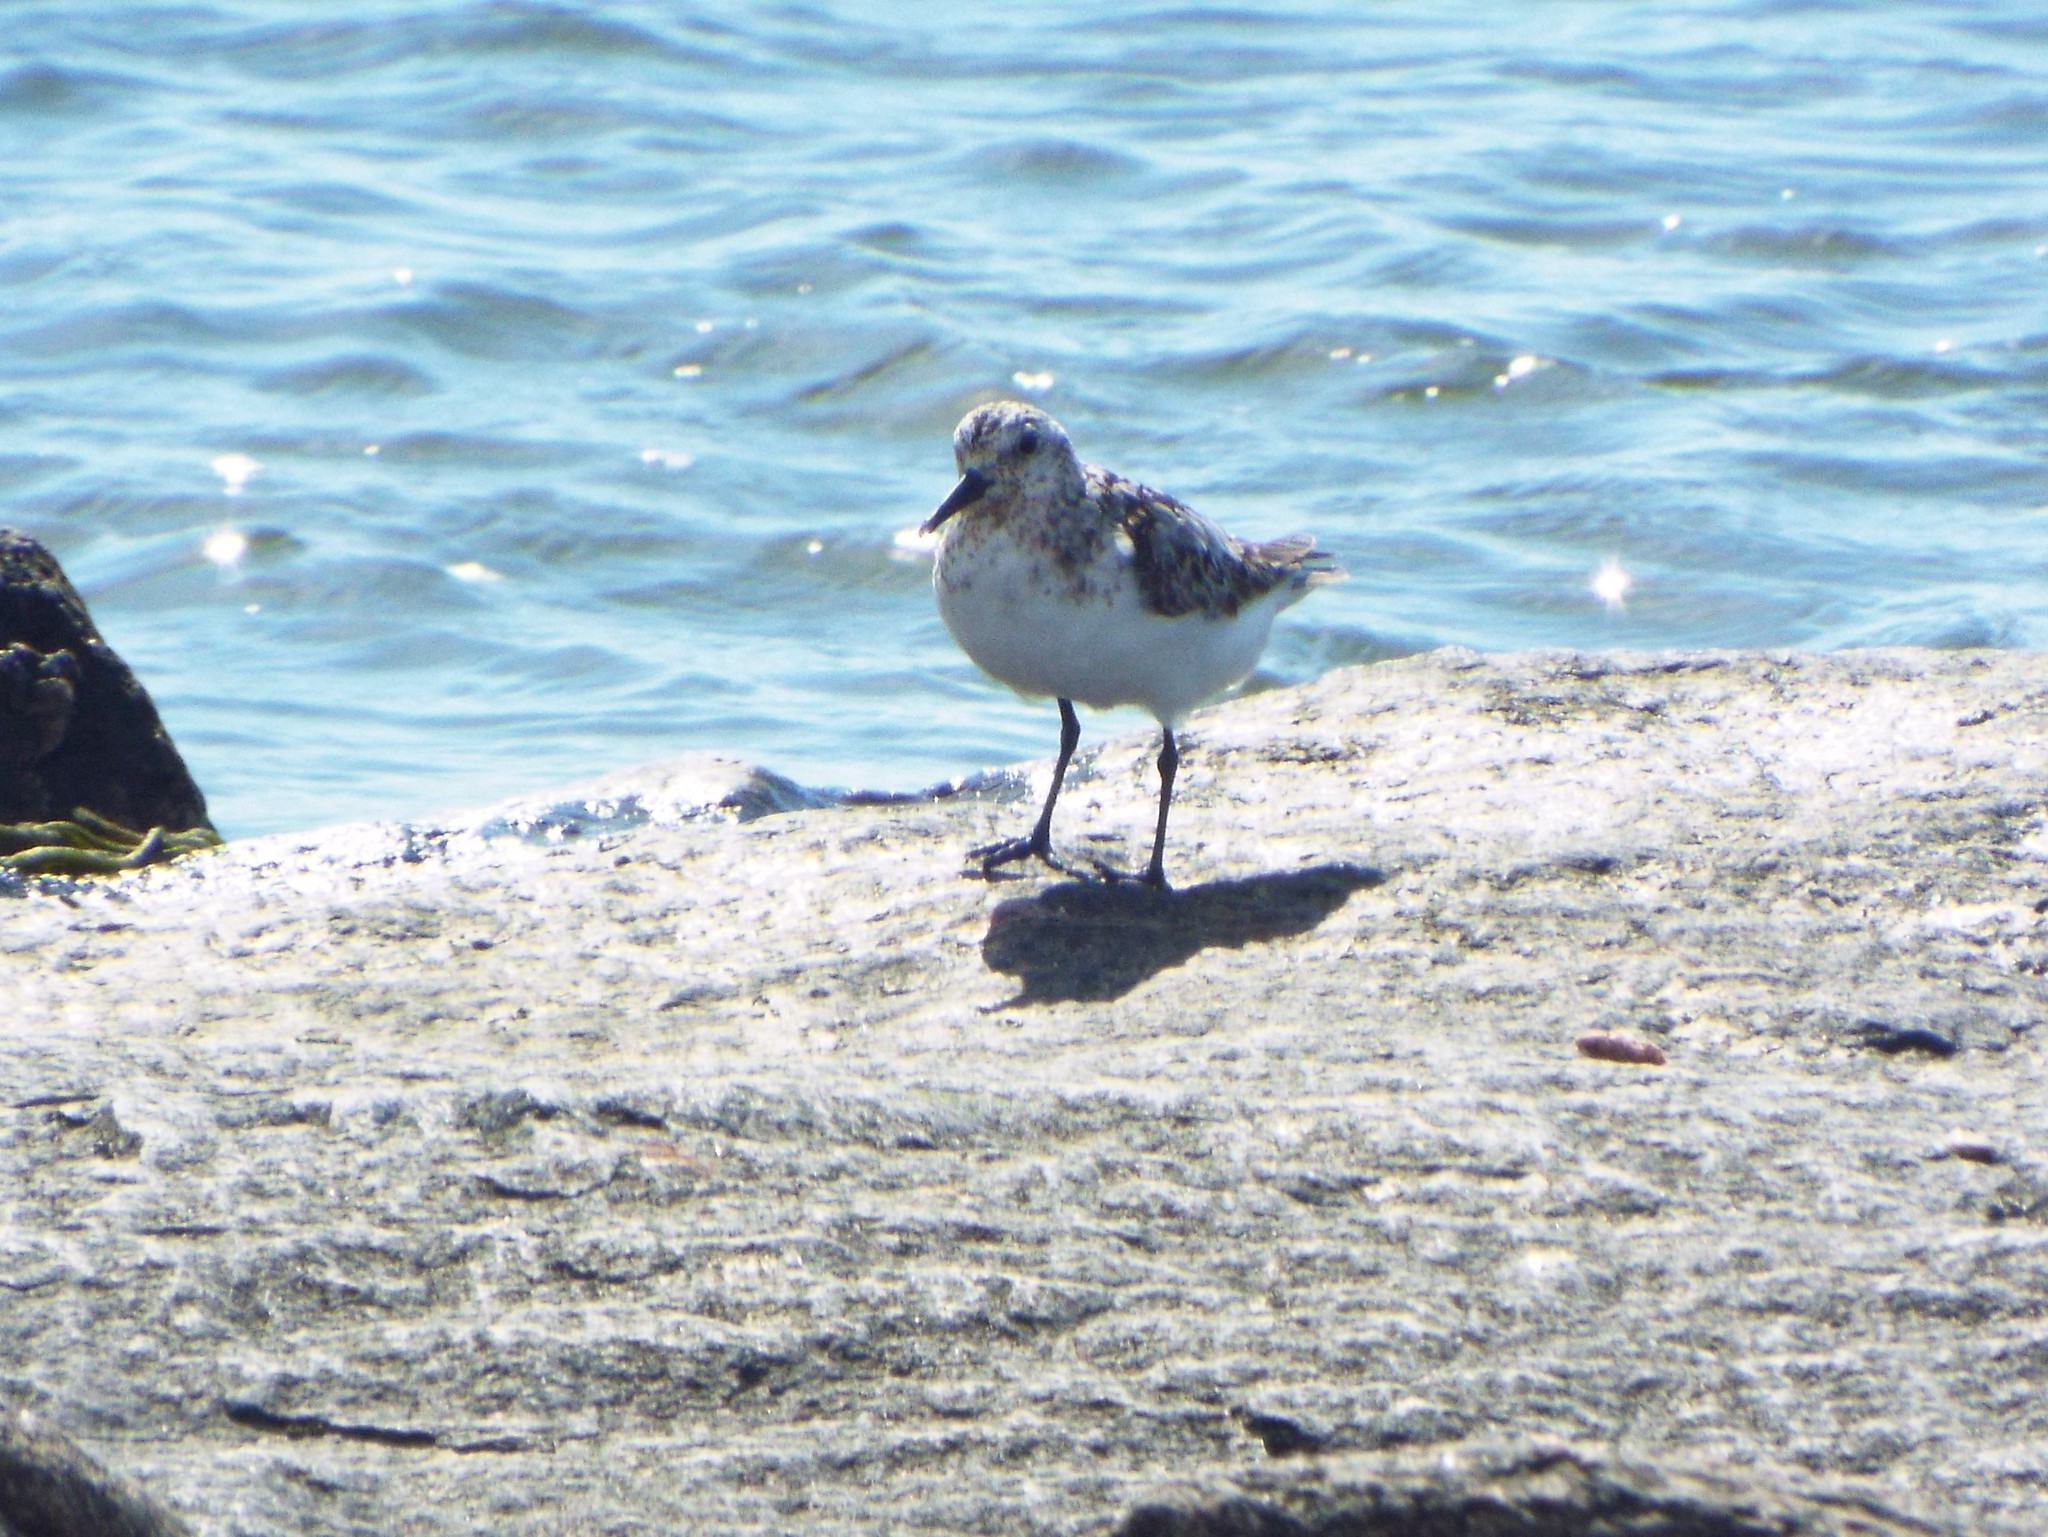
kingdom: Animalia
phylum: Chordata
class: Aves
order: Charadriiformes
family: Scolopacidae
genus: Calidris
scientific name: Calidris alba
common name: Sanderling
